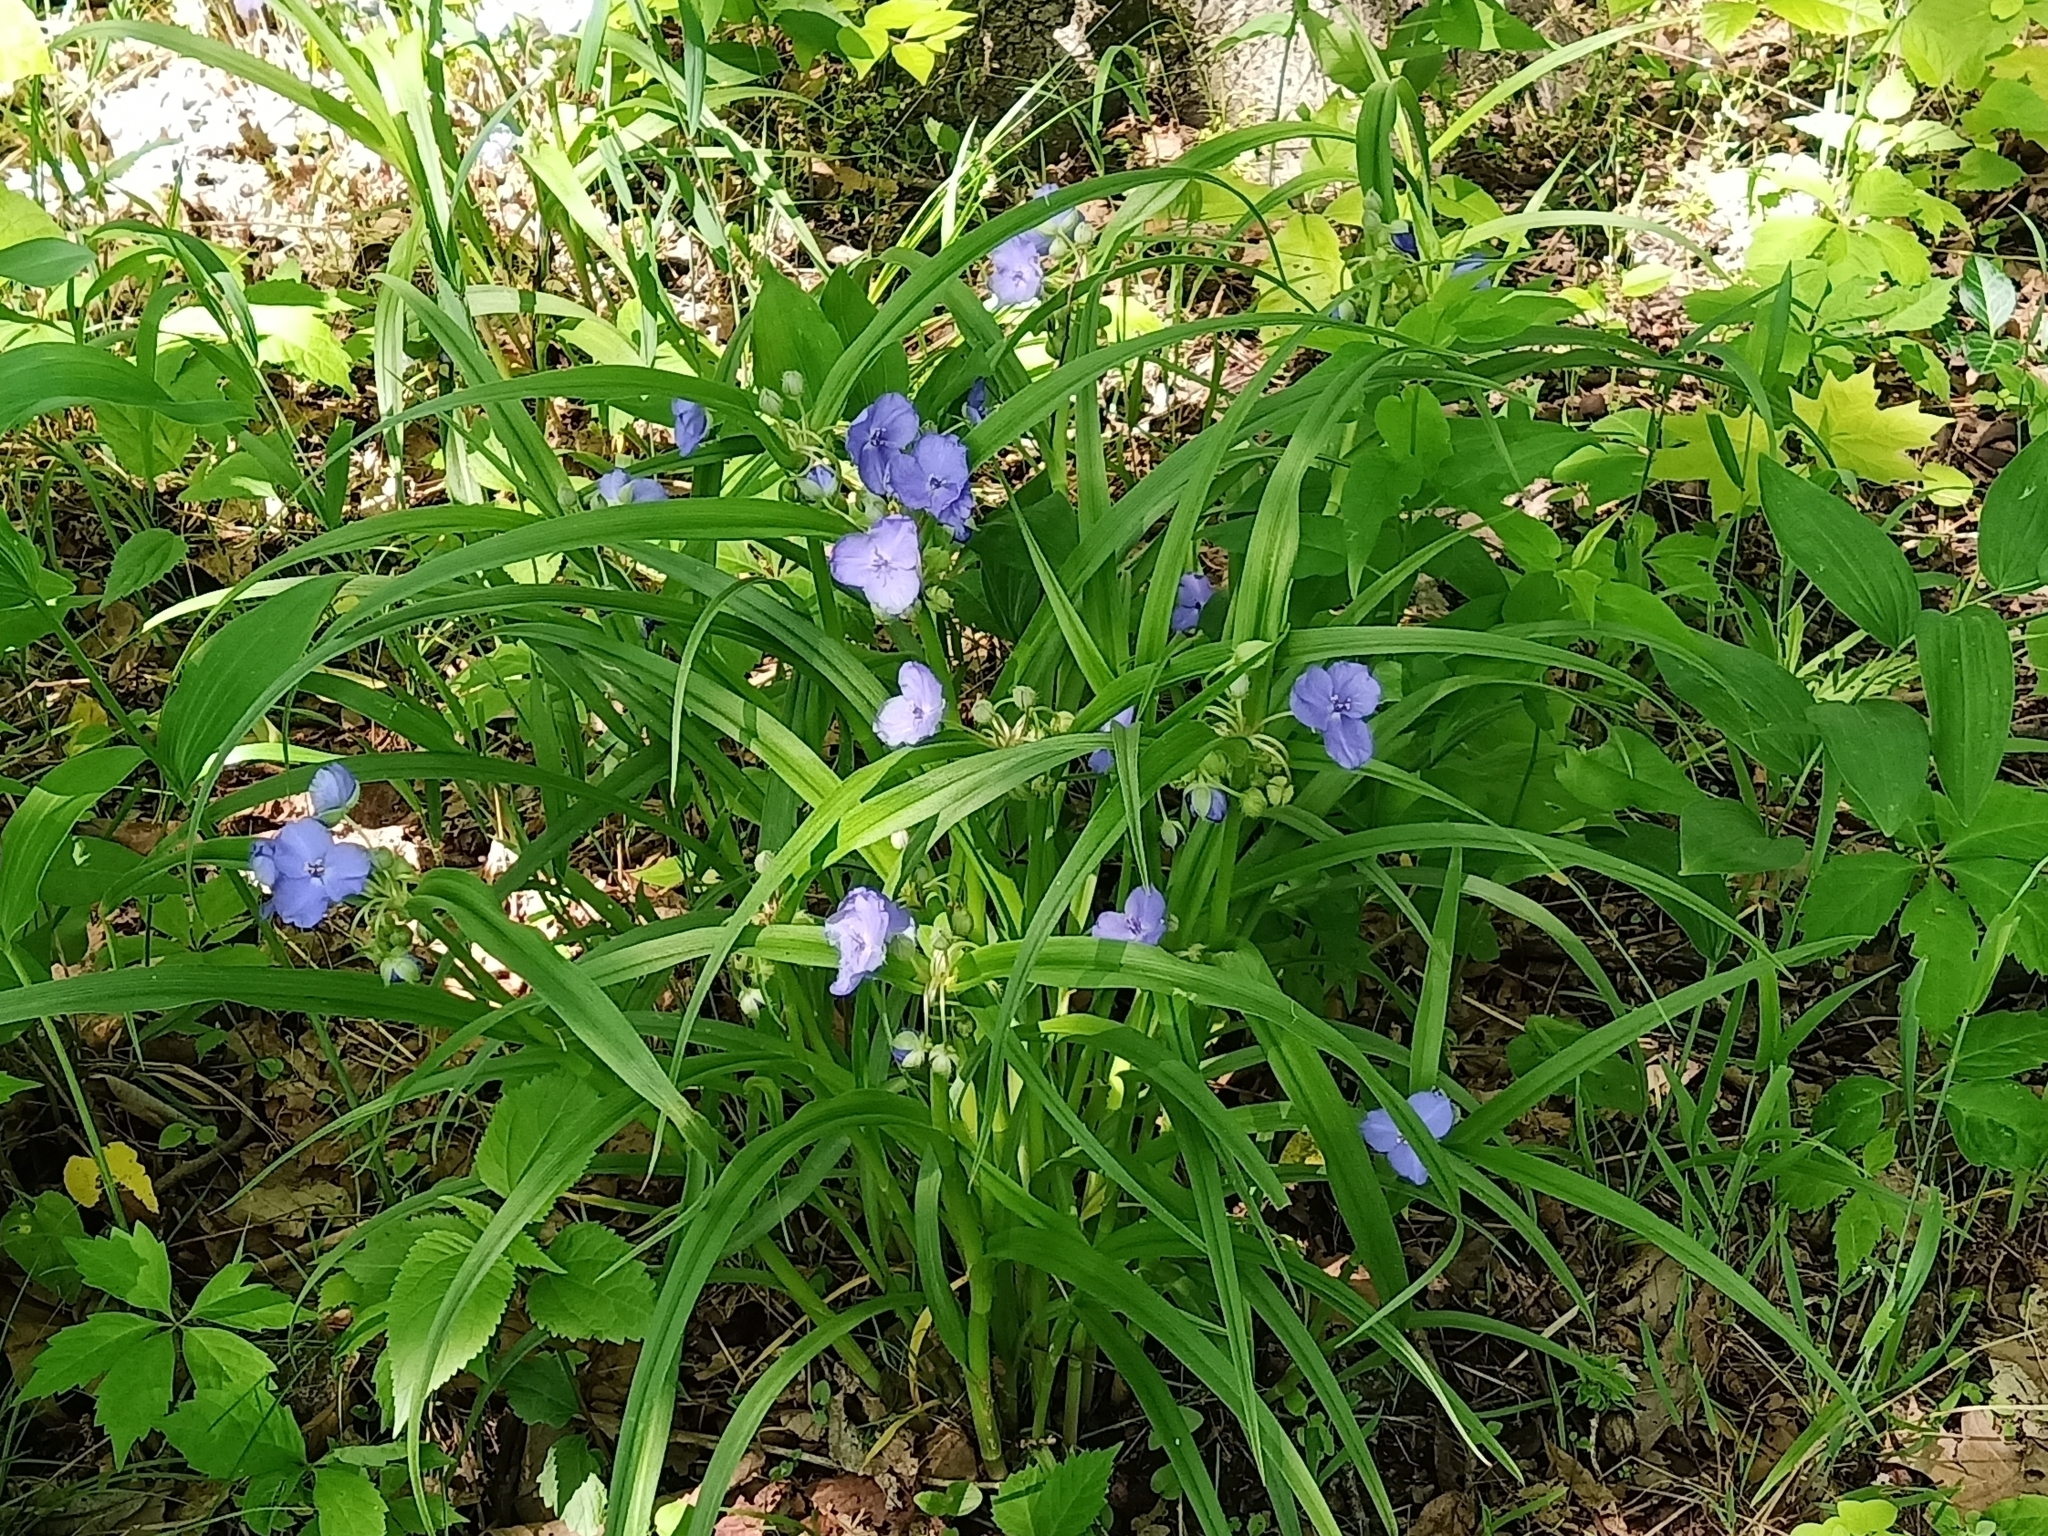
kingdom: Plantae
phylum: Tracheophyta
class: Liliopsida
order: Commelinales
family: Commelinaceae
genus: Tradescantia
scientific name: Tradescantia virginiana
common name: Spiderwort
